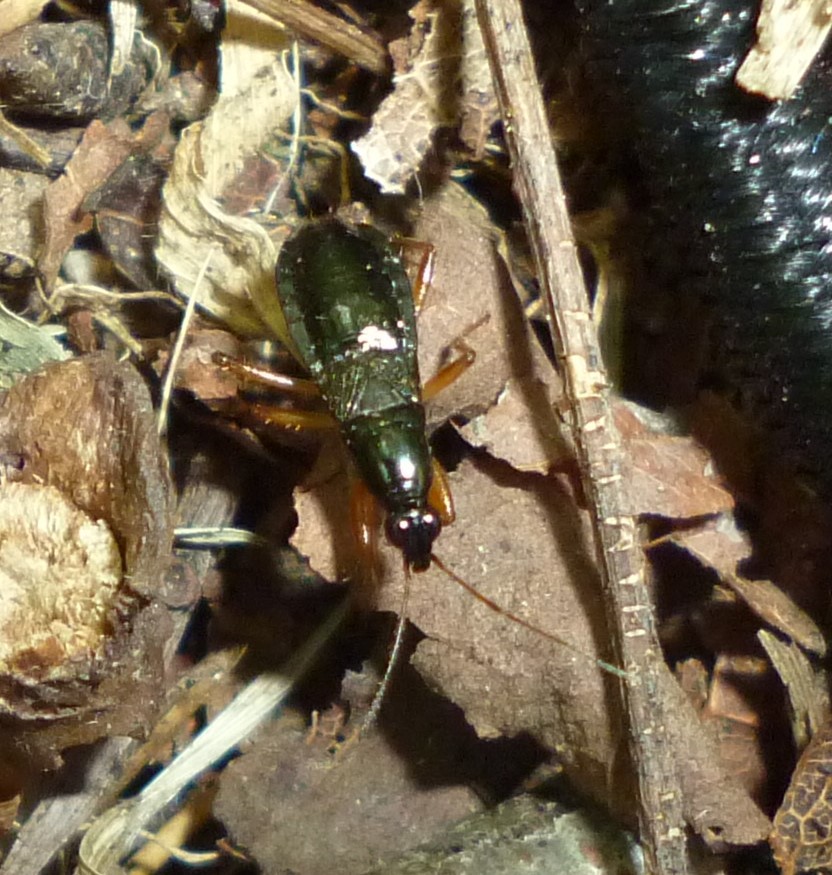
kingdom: Animalia
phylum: Arthropoda
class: Insecta
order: Hemiptera
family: Nabidae
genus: Pagasa
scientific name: Pagasa fusca
